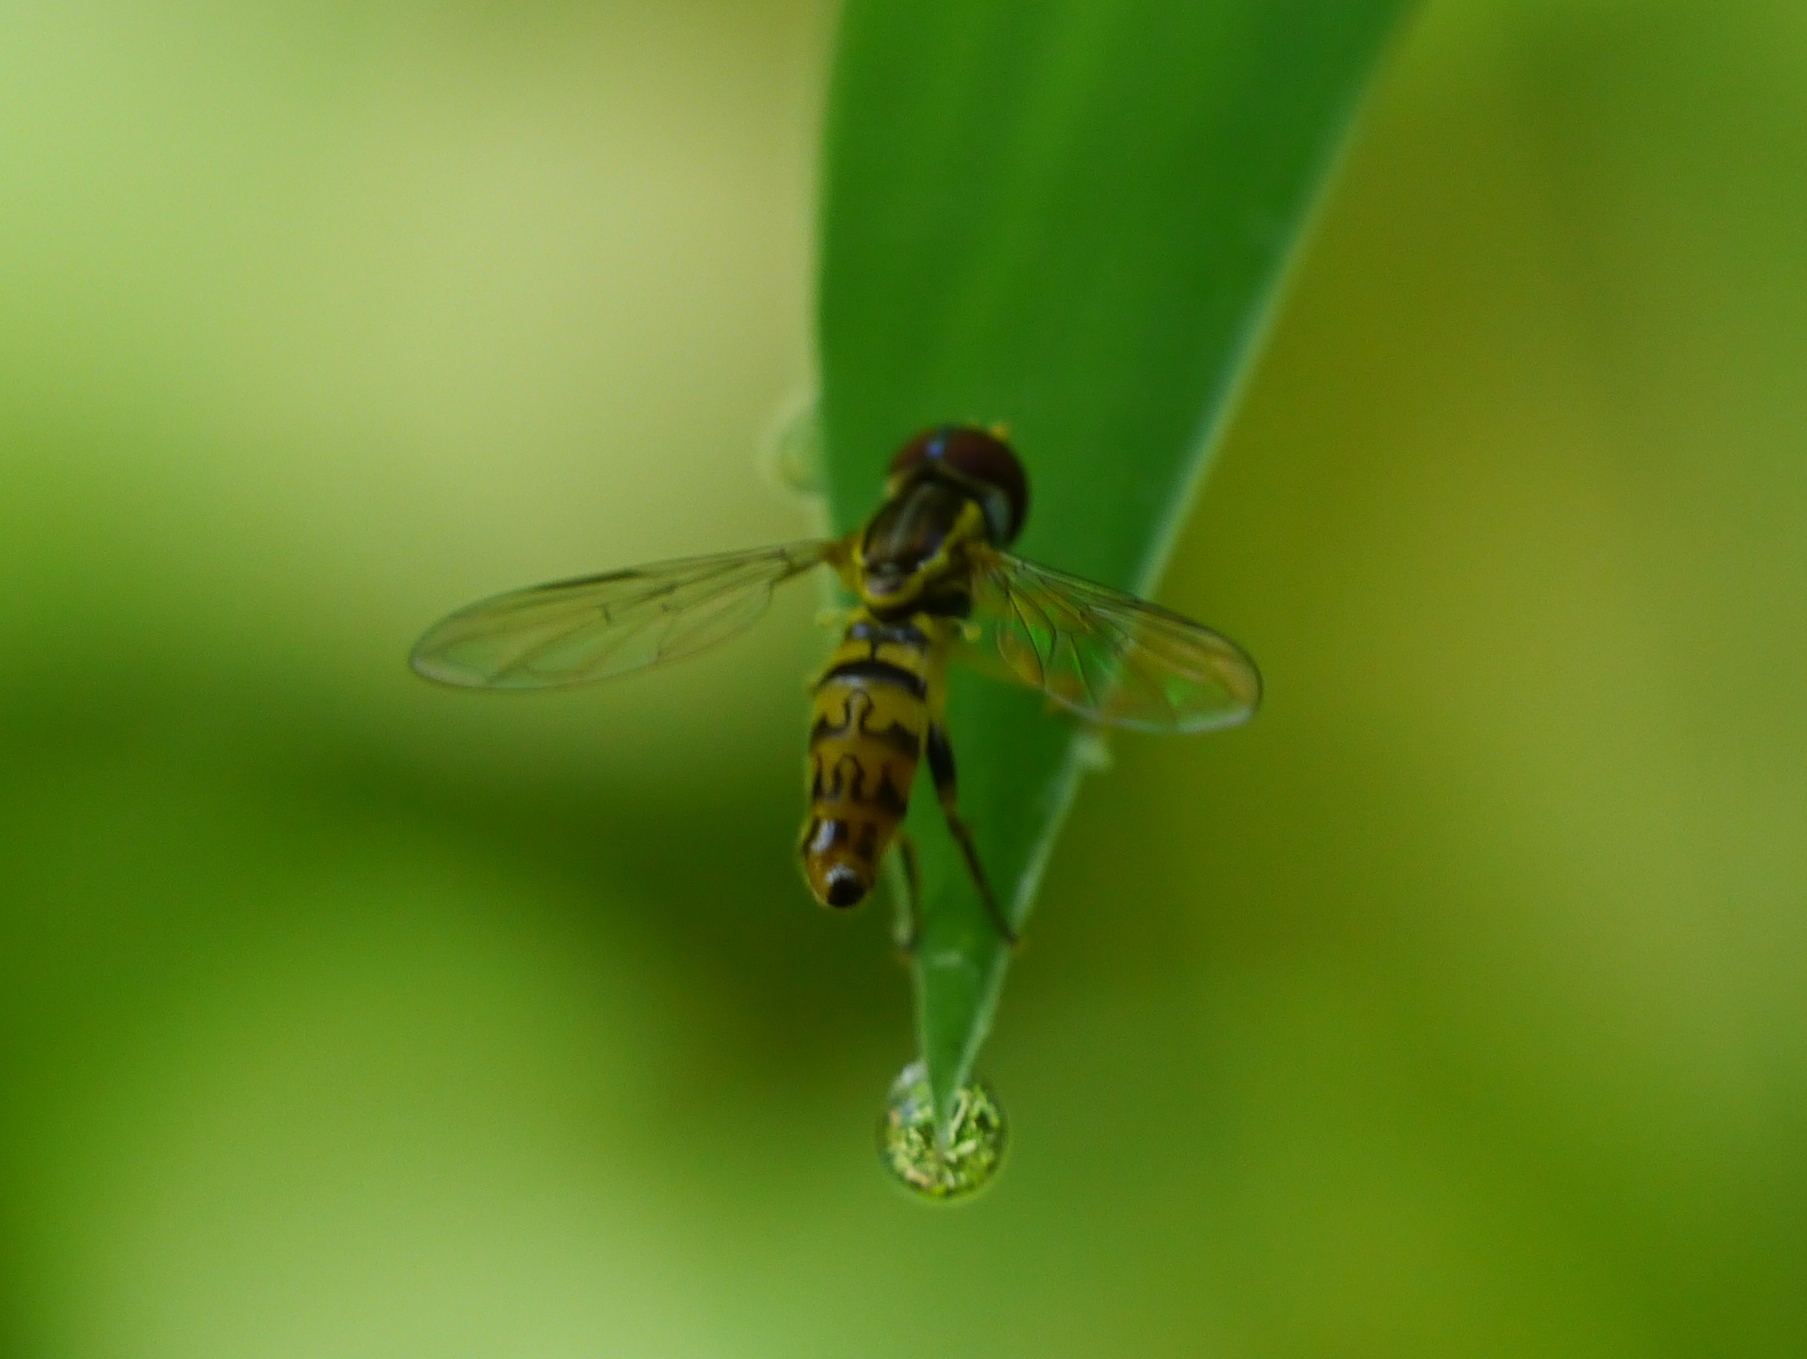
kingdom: Animalia
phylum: Arthropoda
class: Insecta
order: Diptera
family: Syrphidae
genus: Toxomerus
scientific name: Toxomerus geminatus
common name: Eastern calligrapher
